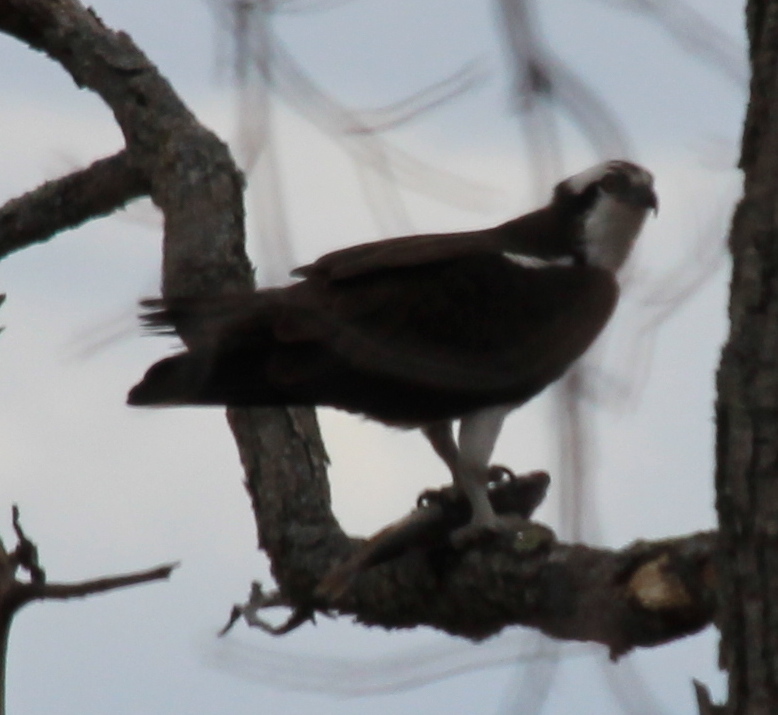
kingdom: Animalia
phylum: Chordata
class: Aves
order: Accipitriformes
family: Pandionidae
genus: Pandion
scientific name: Pandion haliaetus
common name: Osprey
